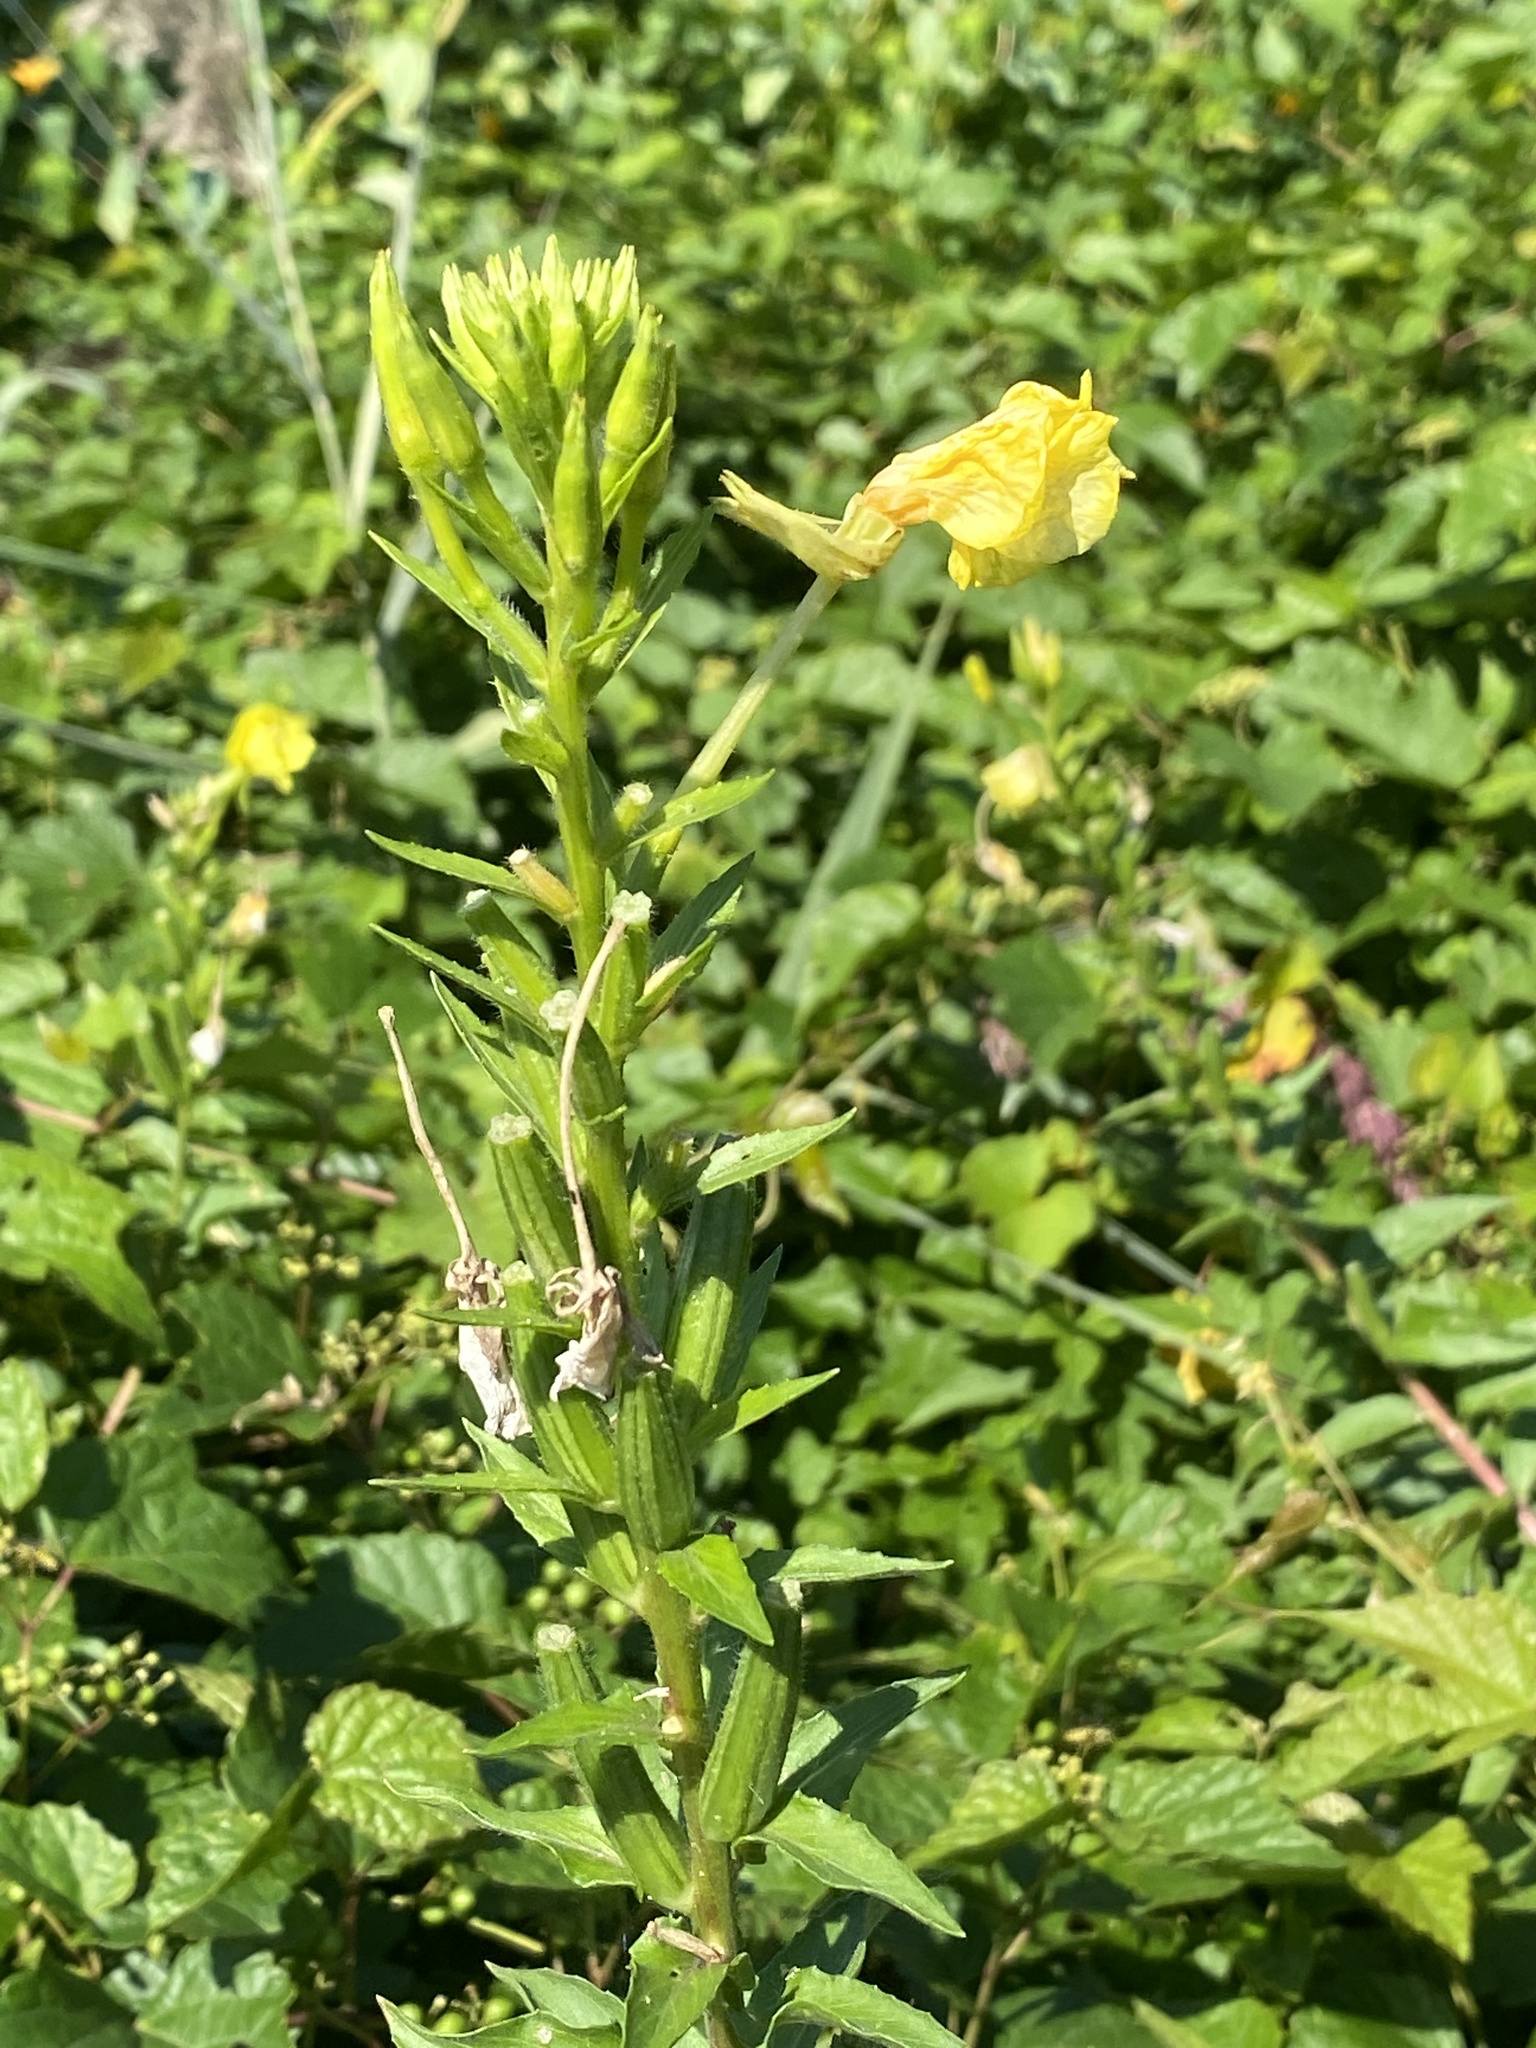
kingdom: Plantae
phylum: Tracheophyta
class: Magnoliopsida
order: Myrtales
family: Onagraceae
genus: Oenothera
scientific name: Oenothera biennis
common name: Common evening-primrose
